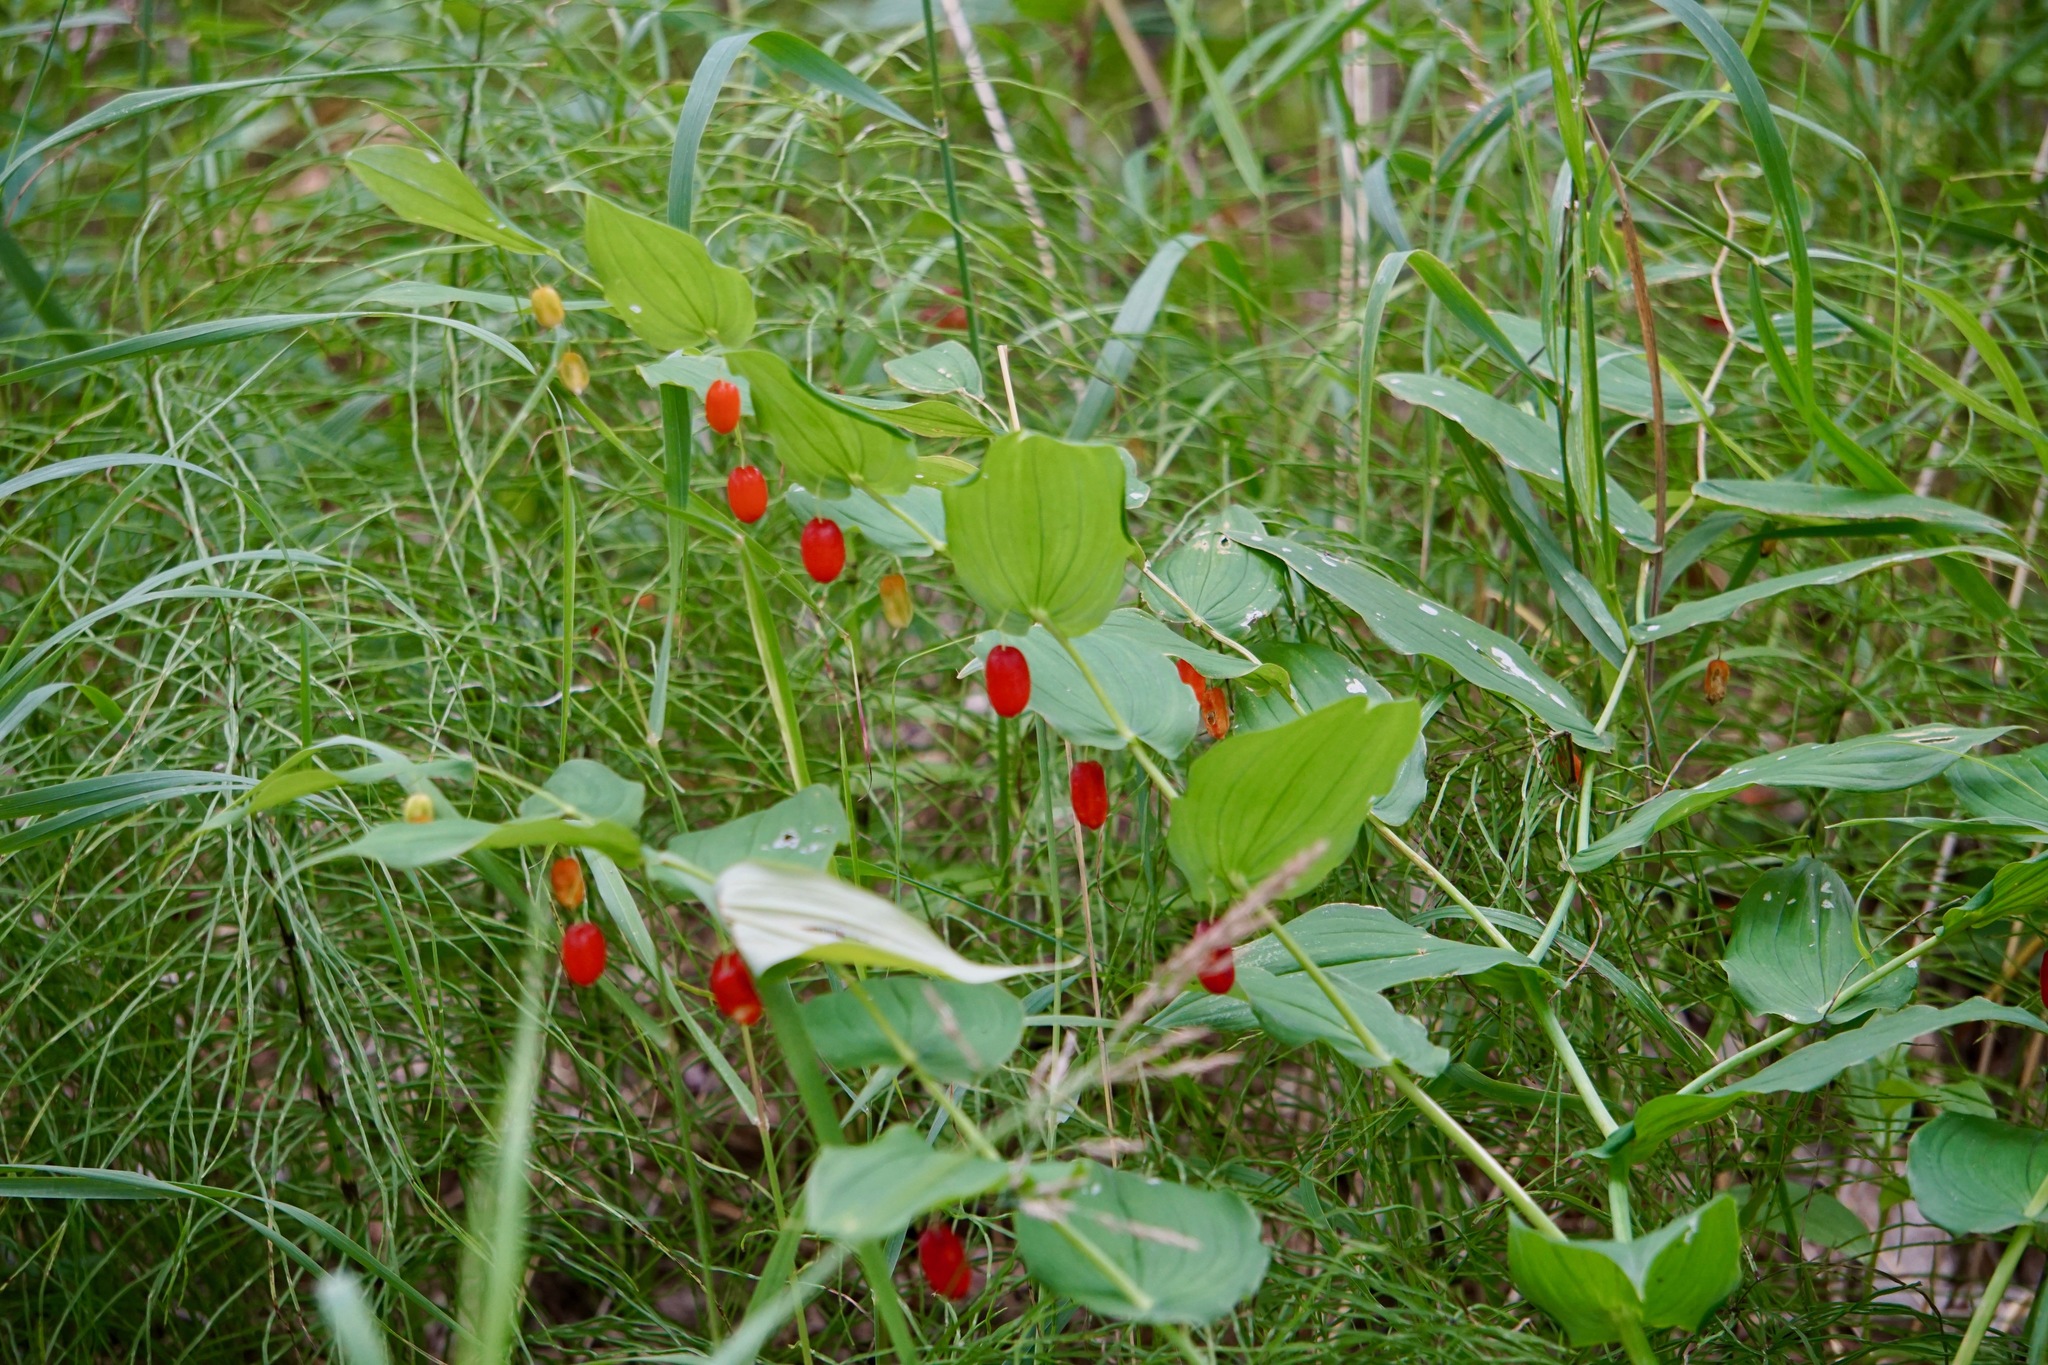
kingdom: Plantae
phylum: Tracheophyta
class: Liliopsida
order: Liliales
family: Liliaceae
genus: Streptopus
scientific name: Streptopus amplexifolius
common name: Clasp twisted stalk
